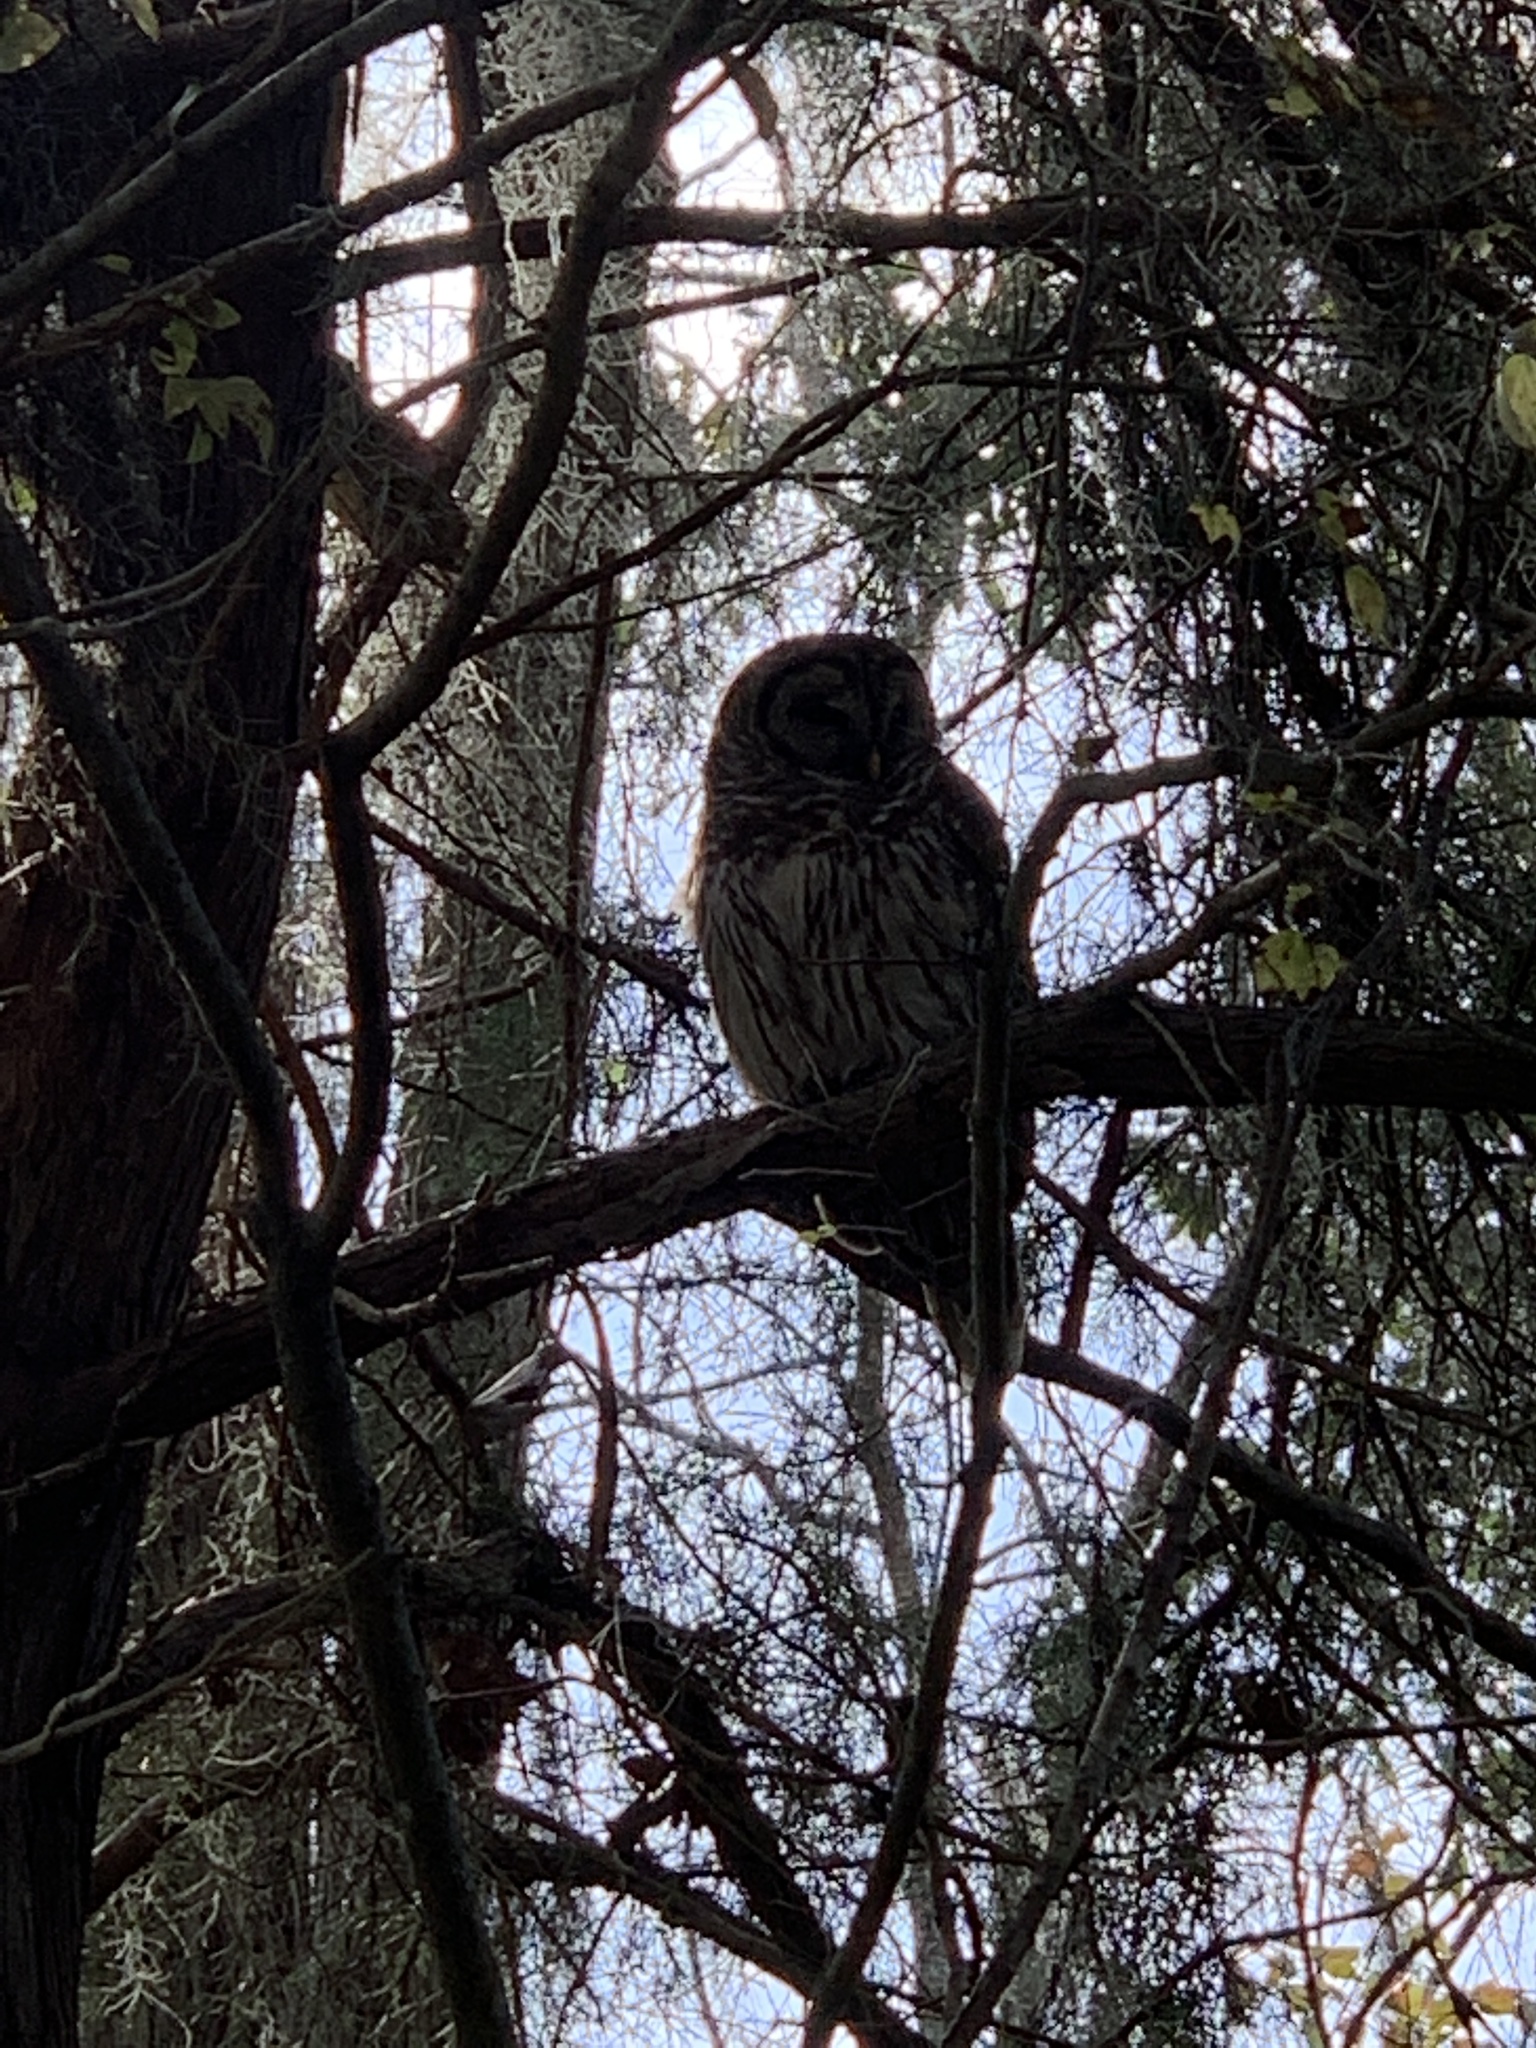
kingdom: Animalia
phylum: Chordata
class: Aves
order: Strigiformes
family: Strigidae
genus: Strix
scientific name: Strix varia
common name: Barred owl
